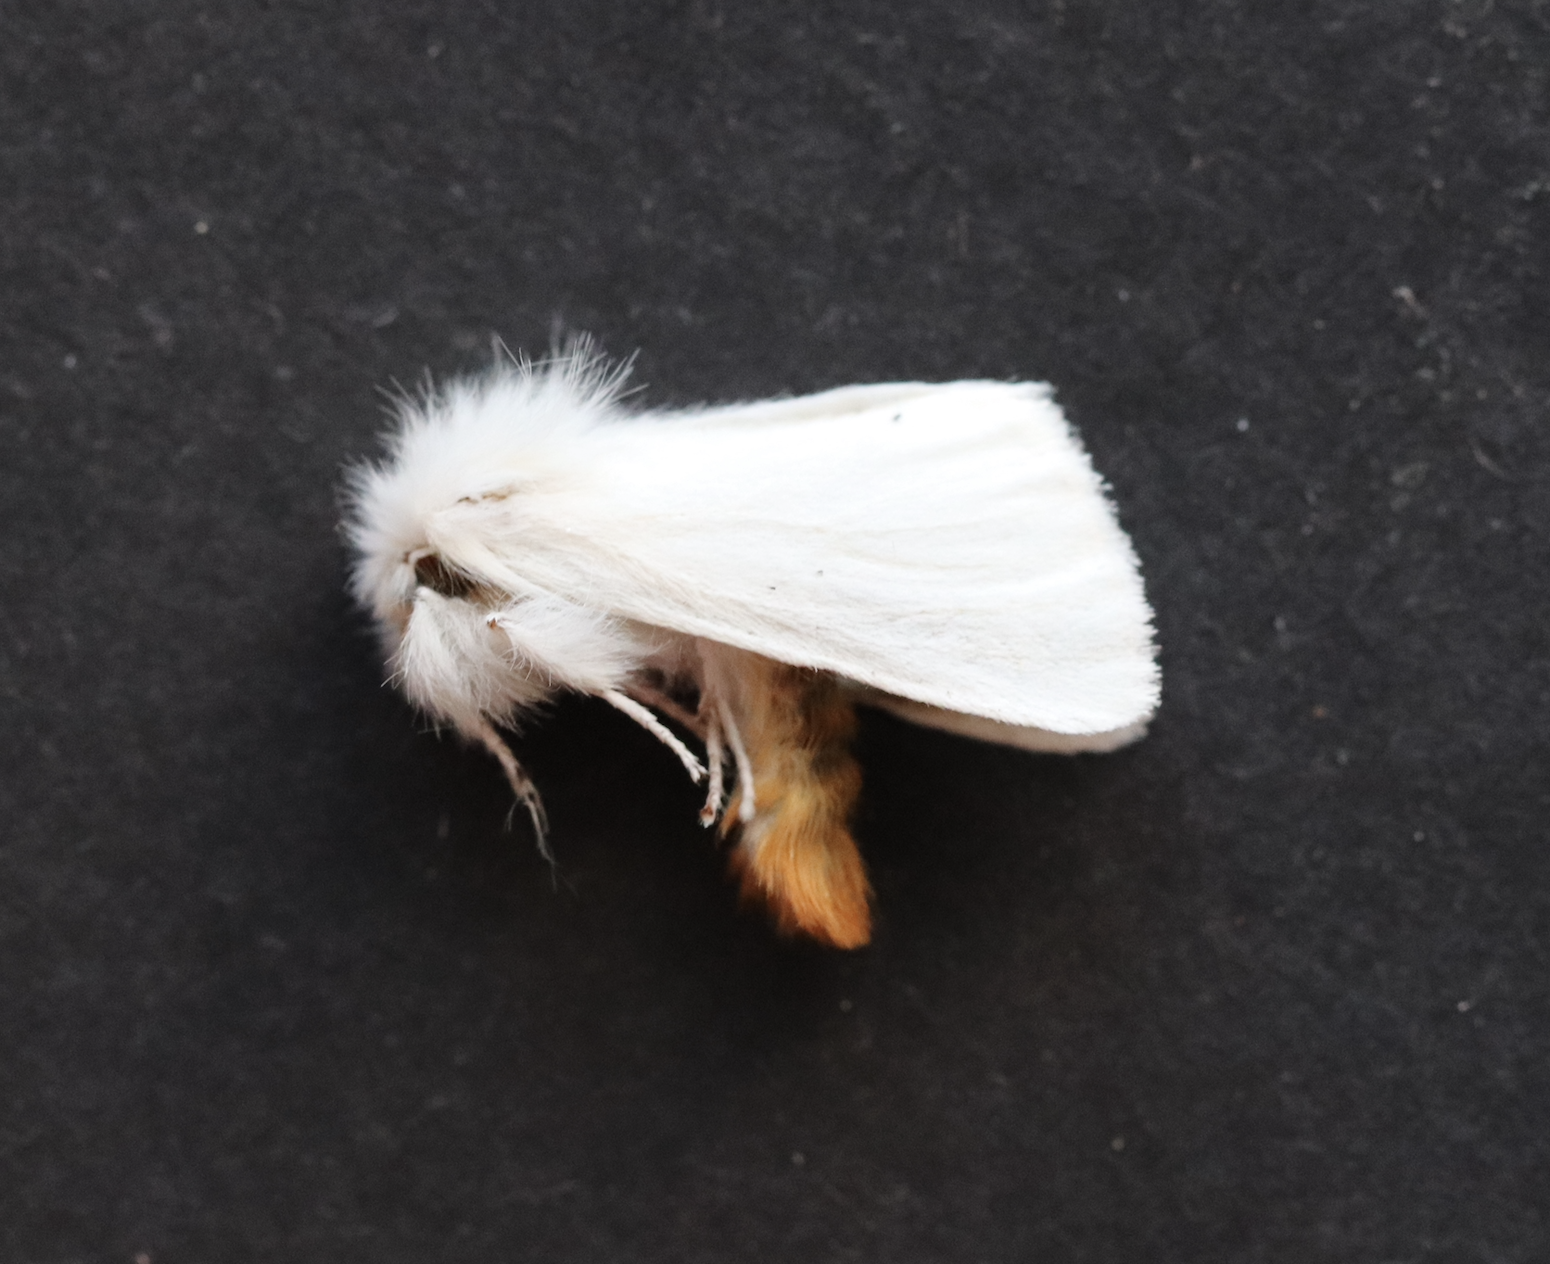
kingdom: Animalia
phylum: Arthropoda
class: Insecta
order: Lepidoptera
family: Erebidae
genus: Euproctis
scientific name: Euproctis chrysorrhoea
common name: Brown-tail
